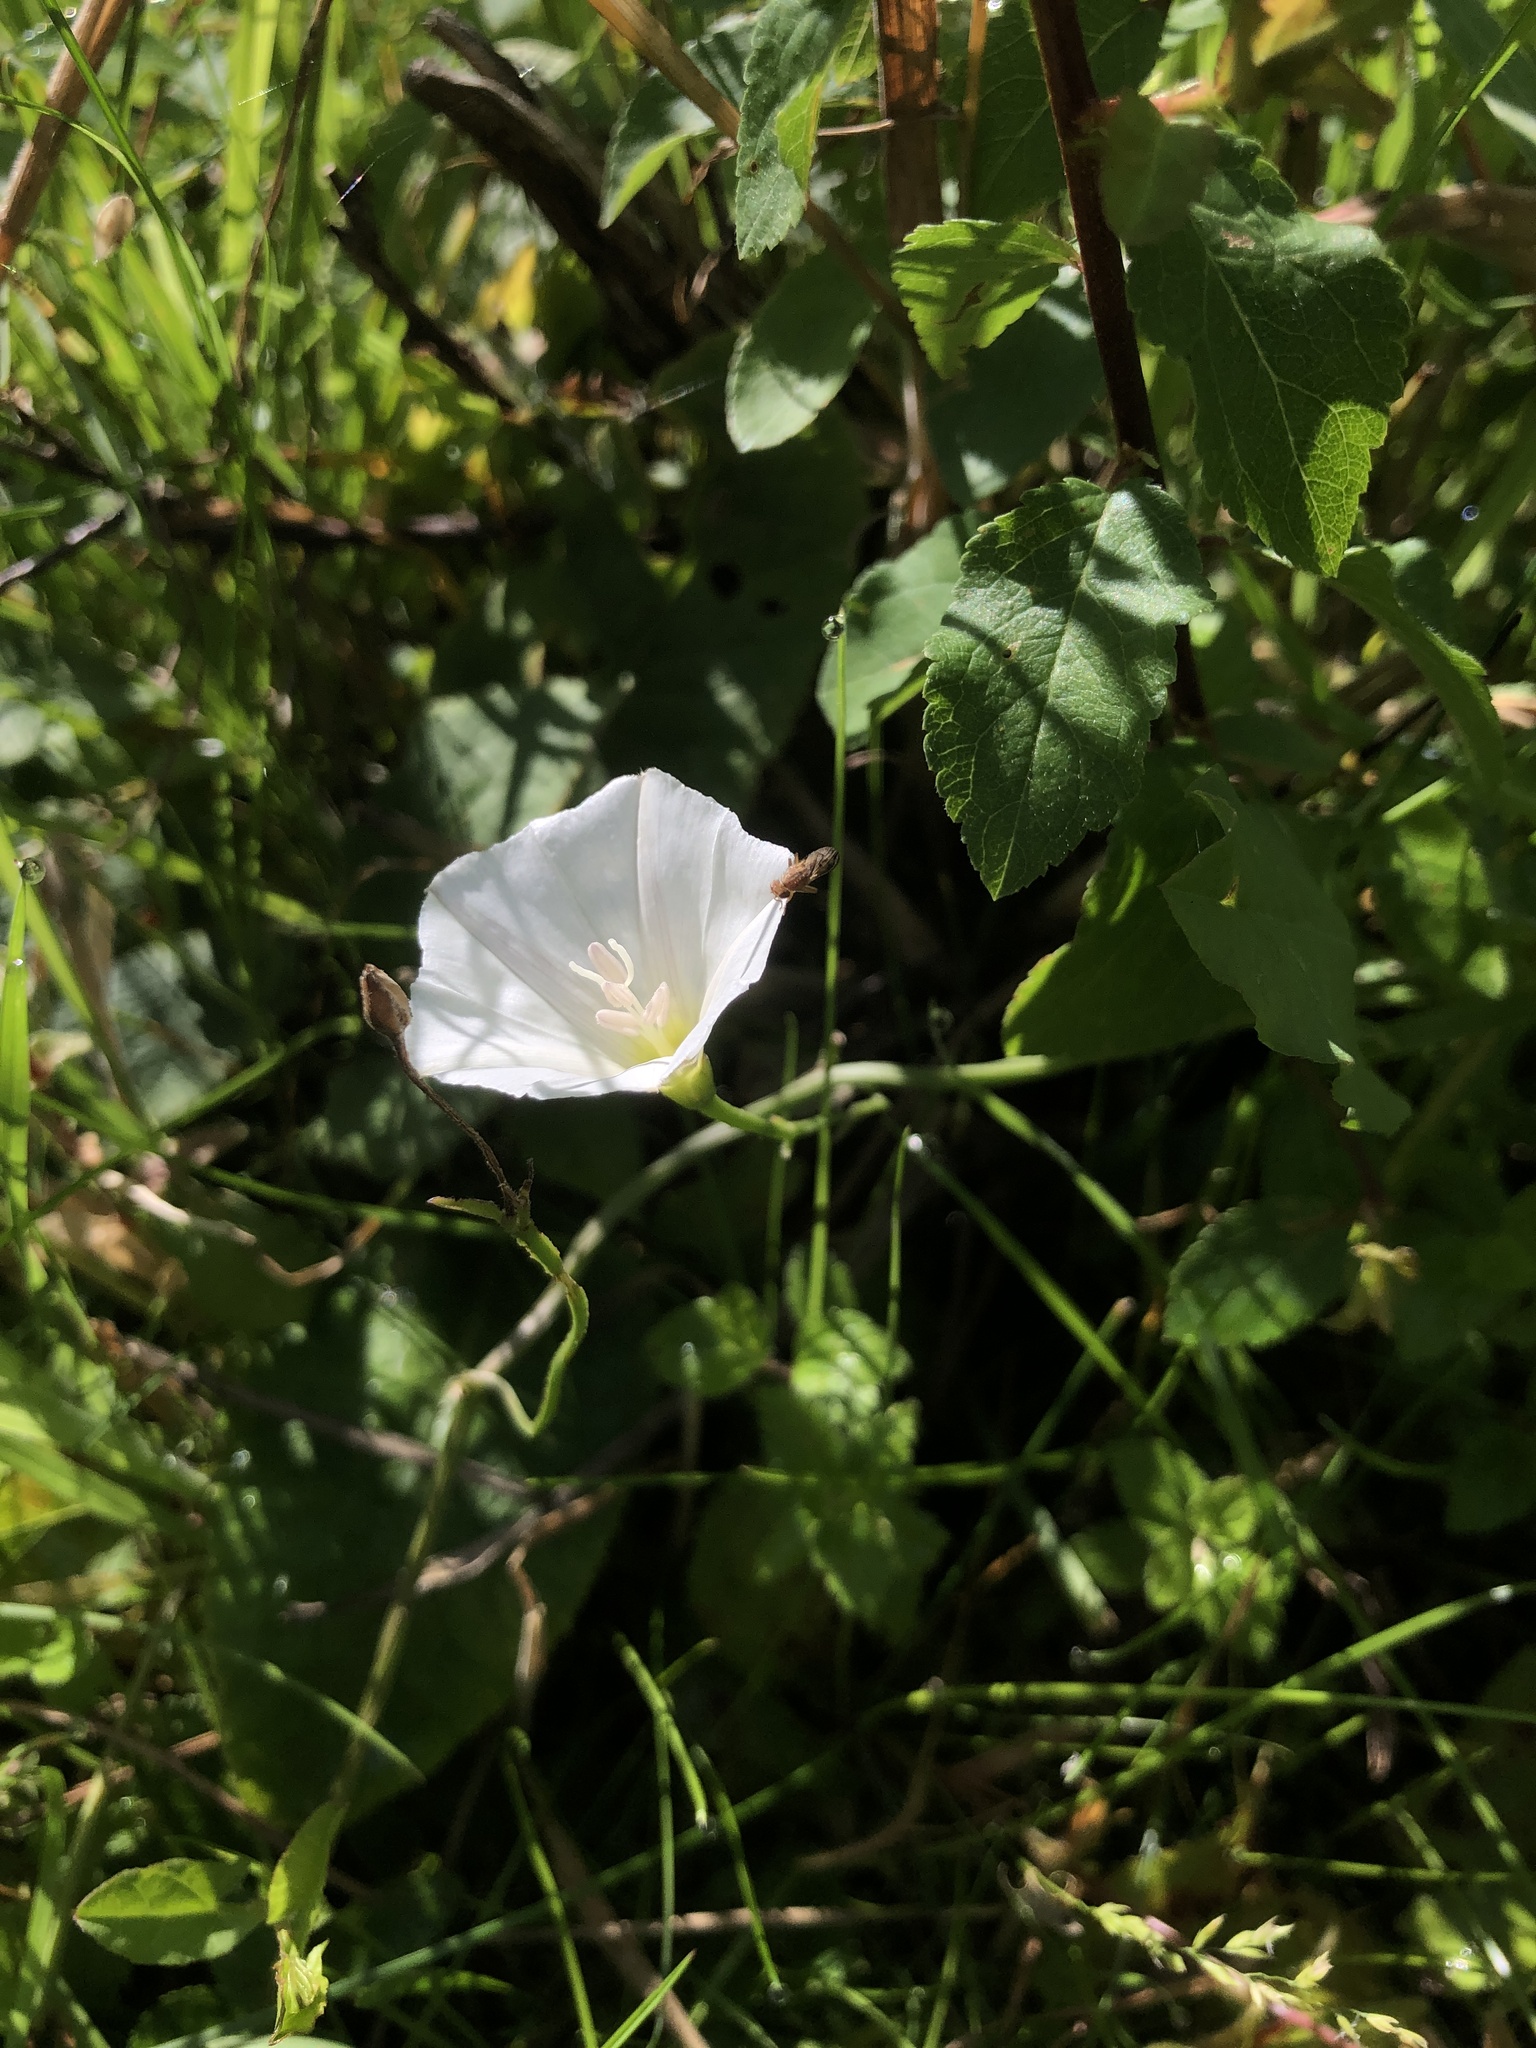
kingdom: Plantae
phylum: Tracheophyta
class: Magnoliopsida
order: Solanales
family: Convolvulaceae
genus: Convolvulus
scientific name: Convolvulus arvensis
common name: Field bindweed
